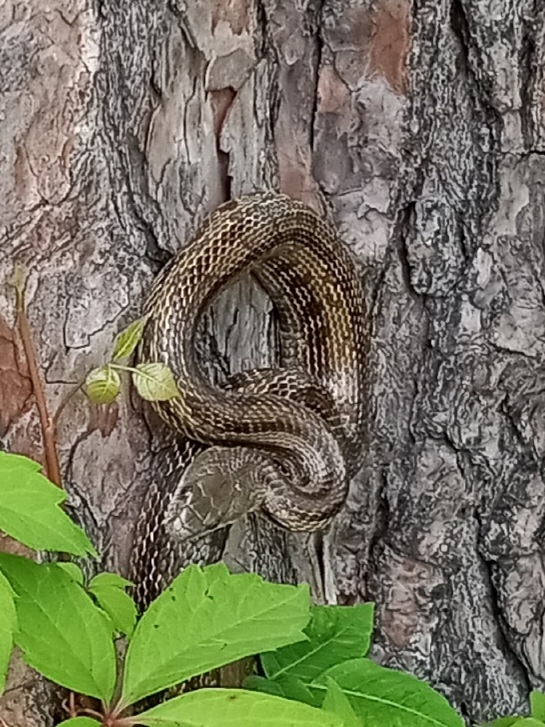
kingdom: Animalia
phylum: Chordata
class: Squamata
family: Colubridae
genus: Pantherophis
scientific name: Pantherophis alleghaniensis
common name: Eastern rat snake
